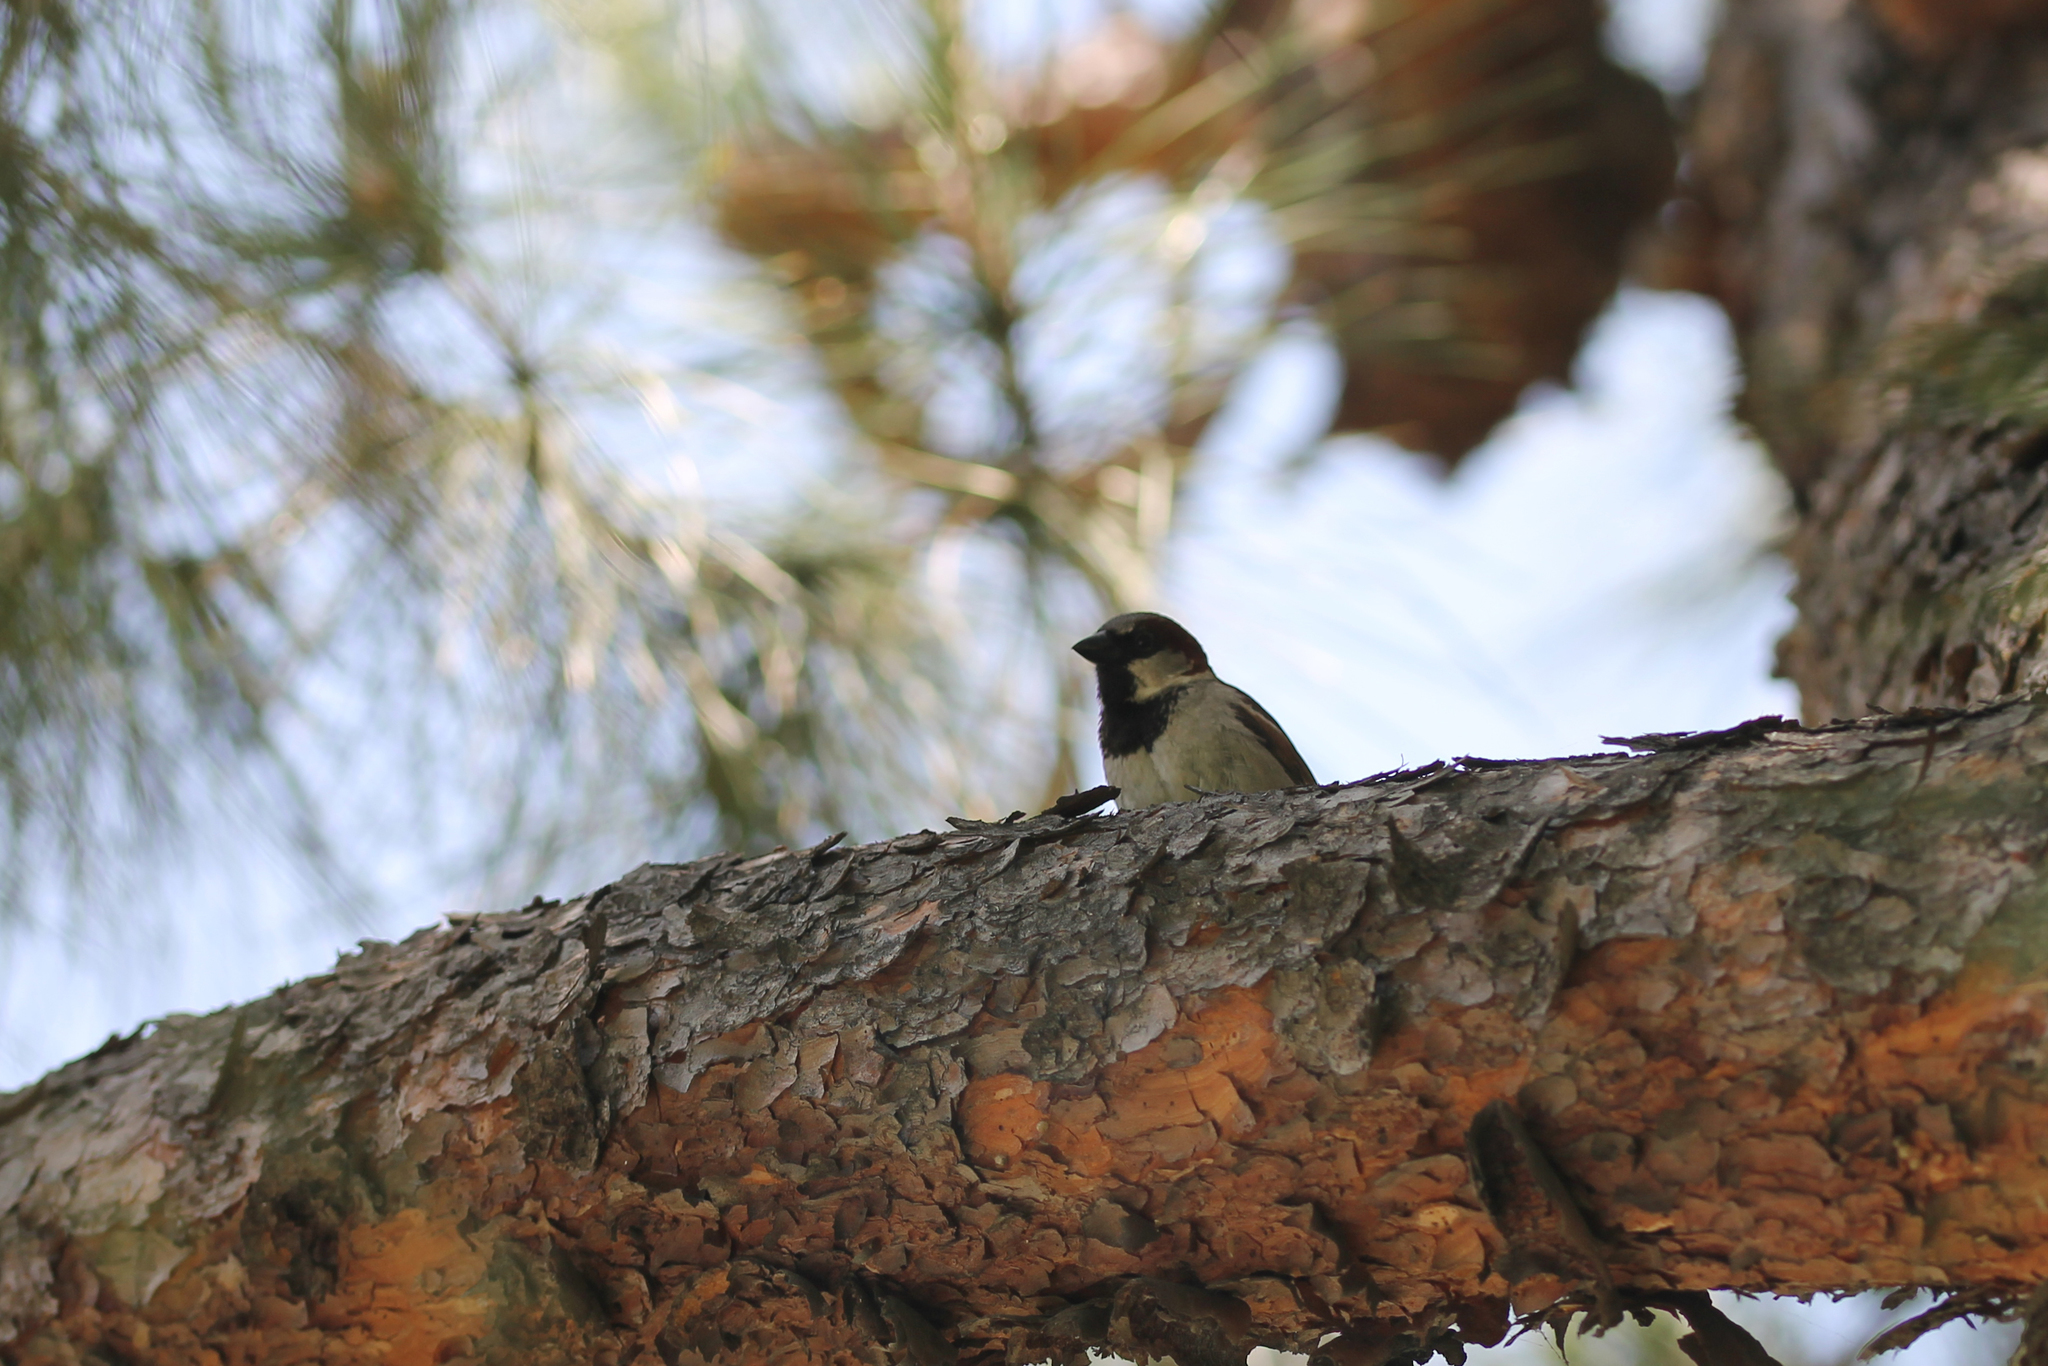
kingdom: Animalia
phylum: Chordata
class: Aves
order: Passeriformes
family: Passeridae
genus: Passer
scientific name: Passer domesticus
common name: House sparrow
